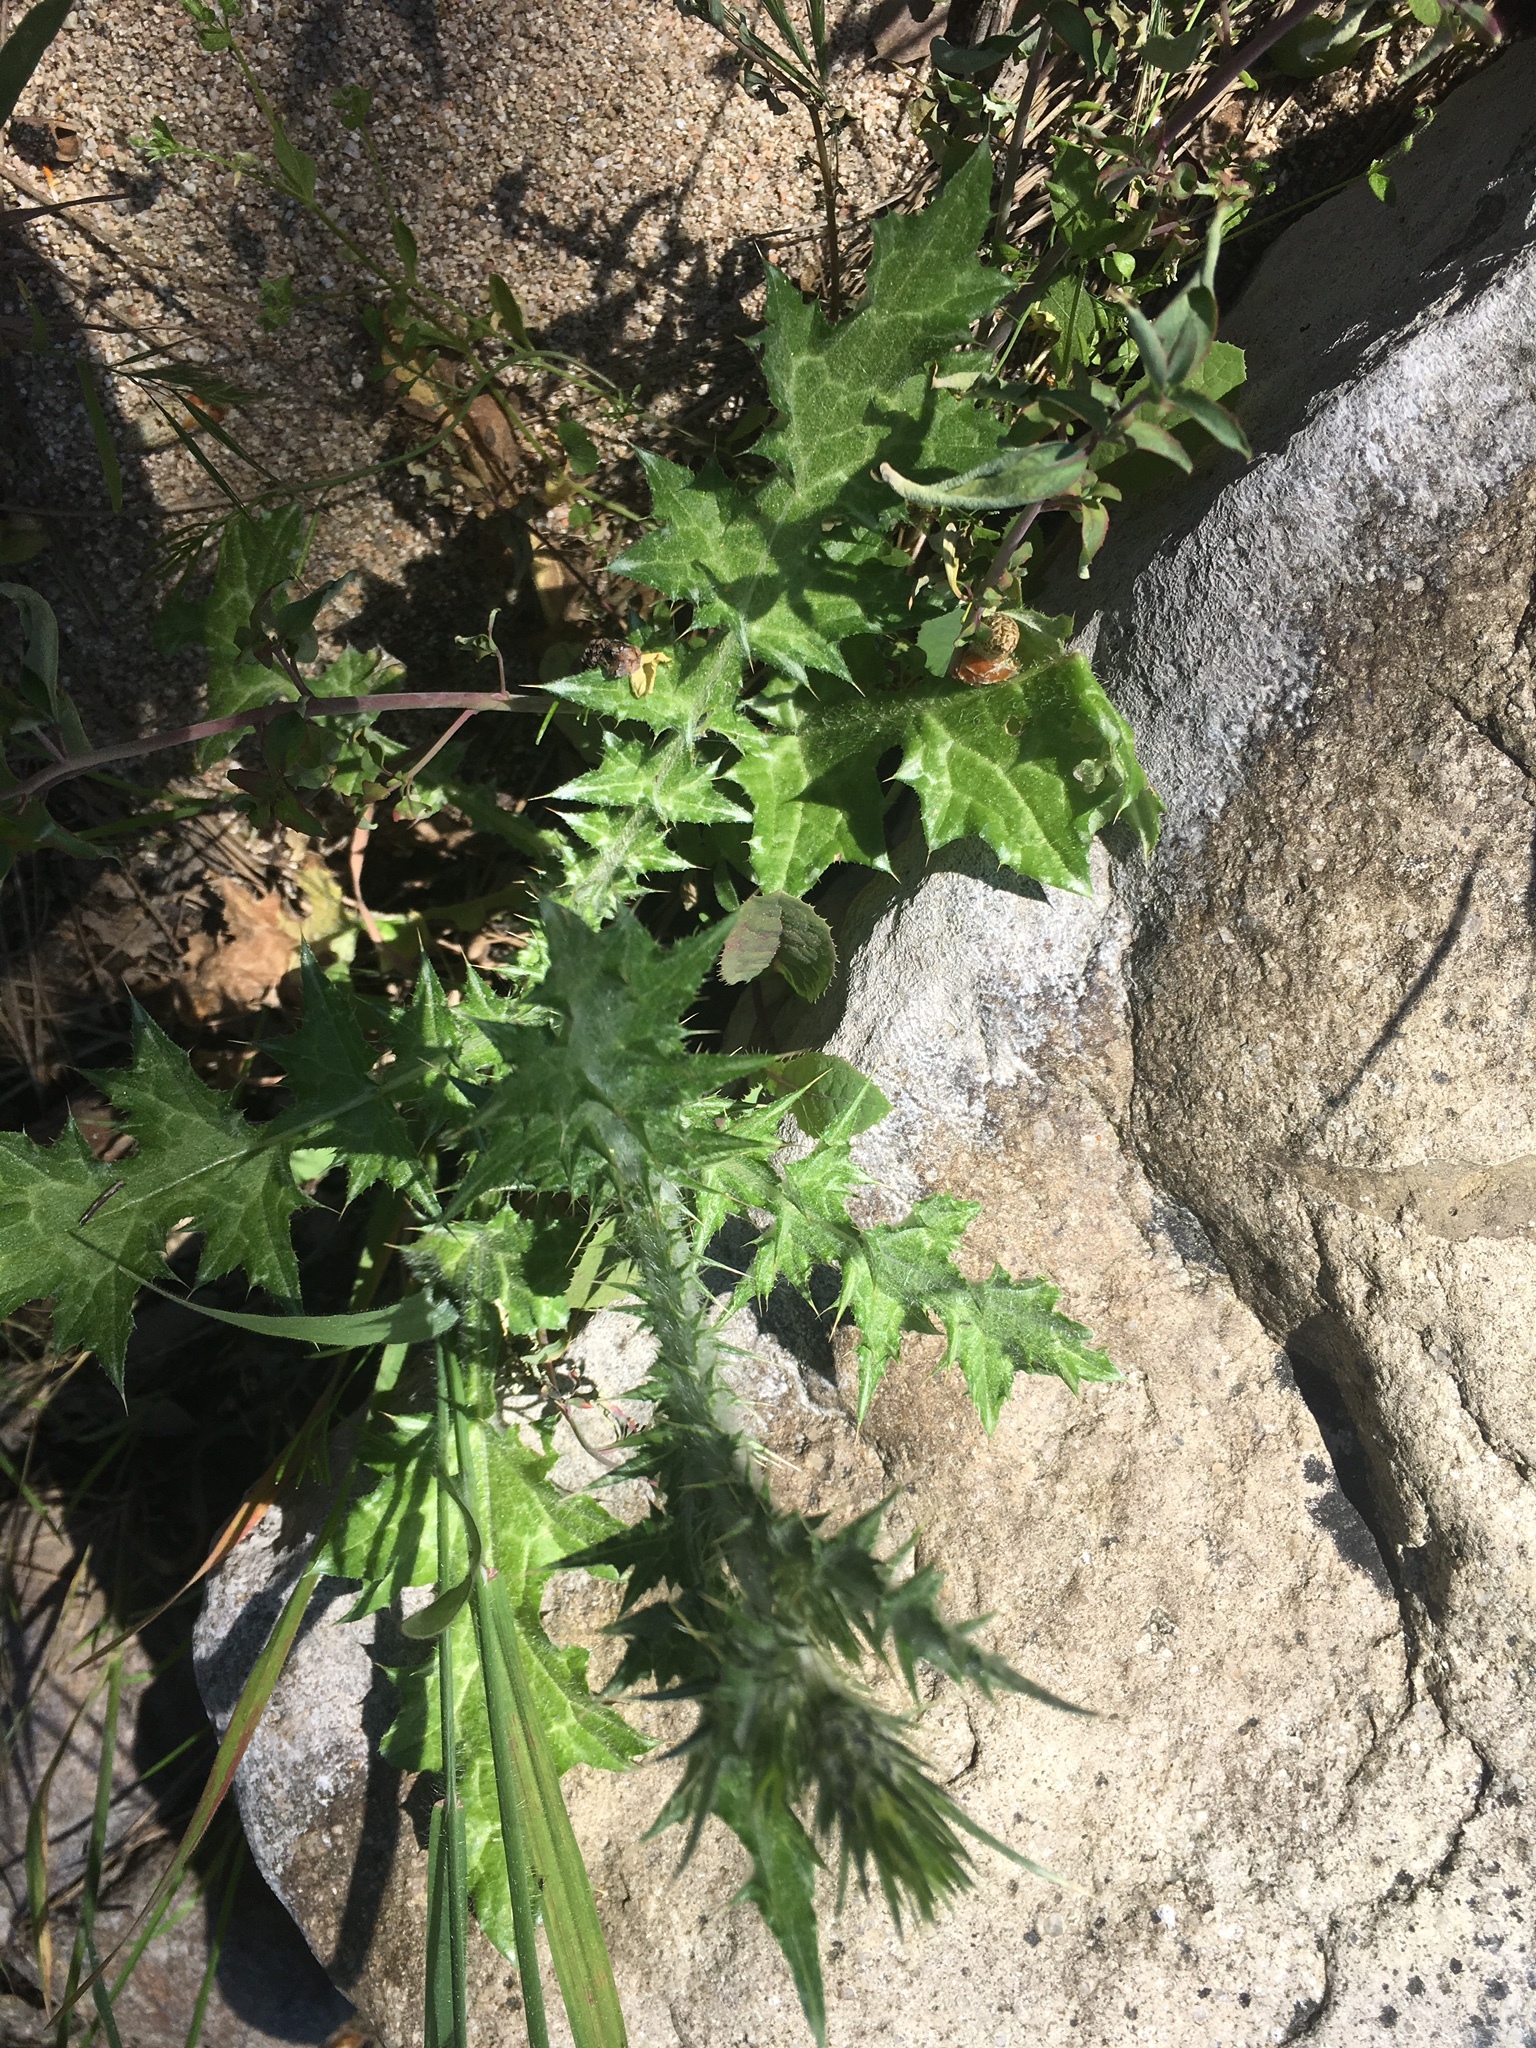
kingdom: Plantae
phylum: Tracheophyta
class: Magnoliopsida
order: Asterales
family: Asteraceae
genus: Carduus
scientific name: Carduus pycnocephalus
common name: Plymouth thistle
